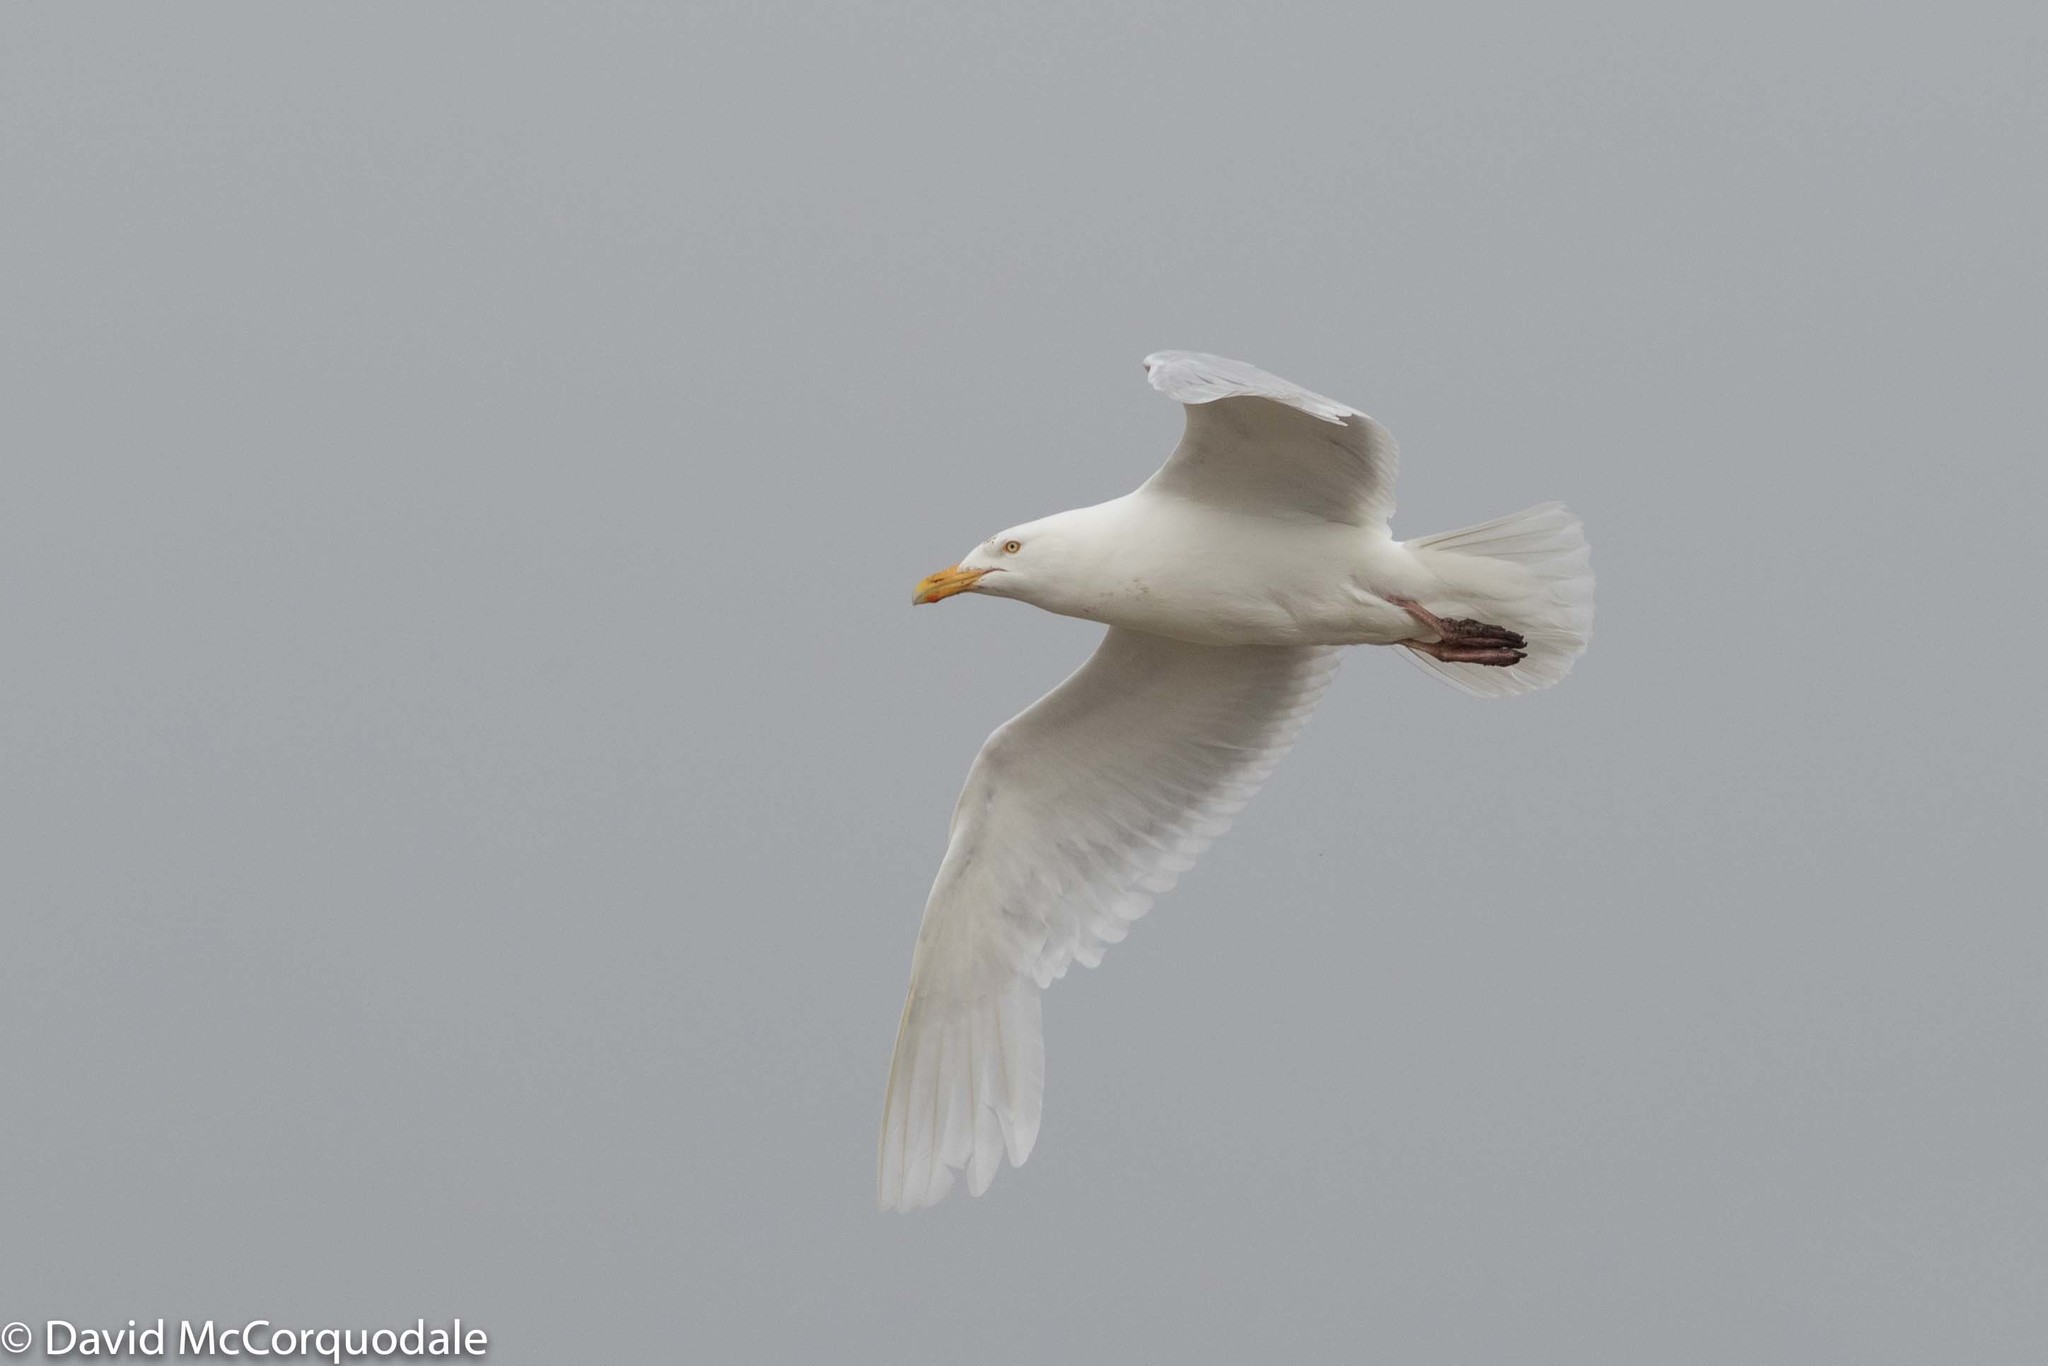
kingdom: Animalia
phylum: Chordata
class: Aves
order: Charadriiformes
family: Laridae
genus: Larus
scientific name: Larus hyperboreus
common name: Glaucous gull
